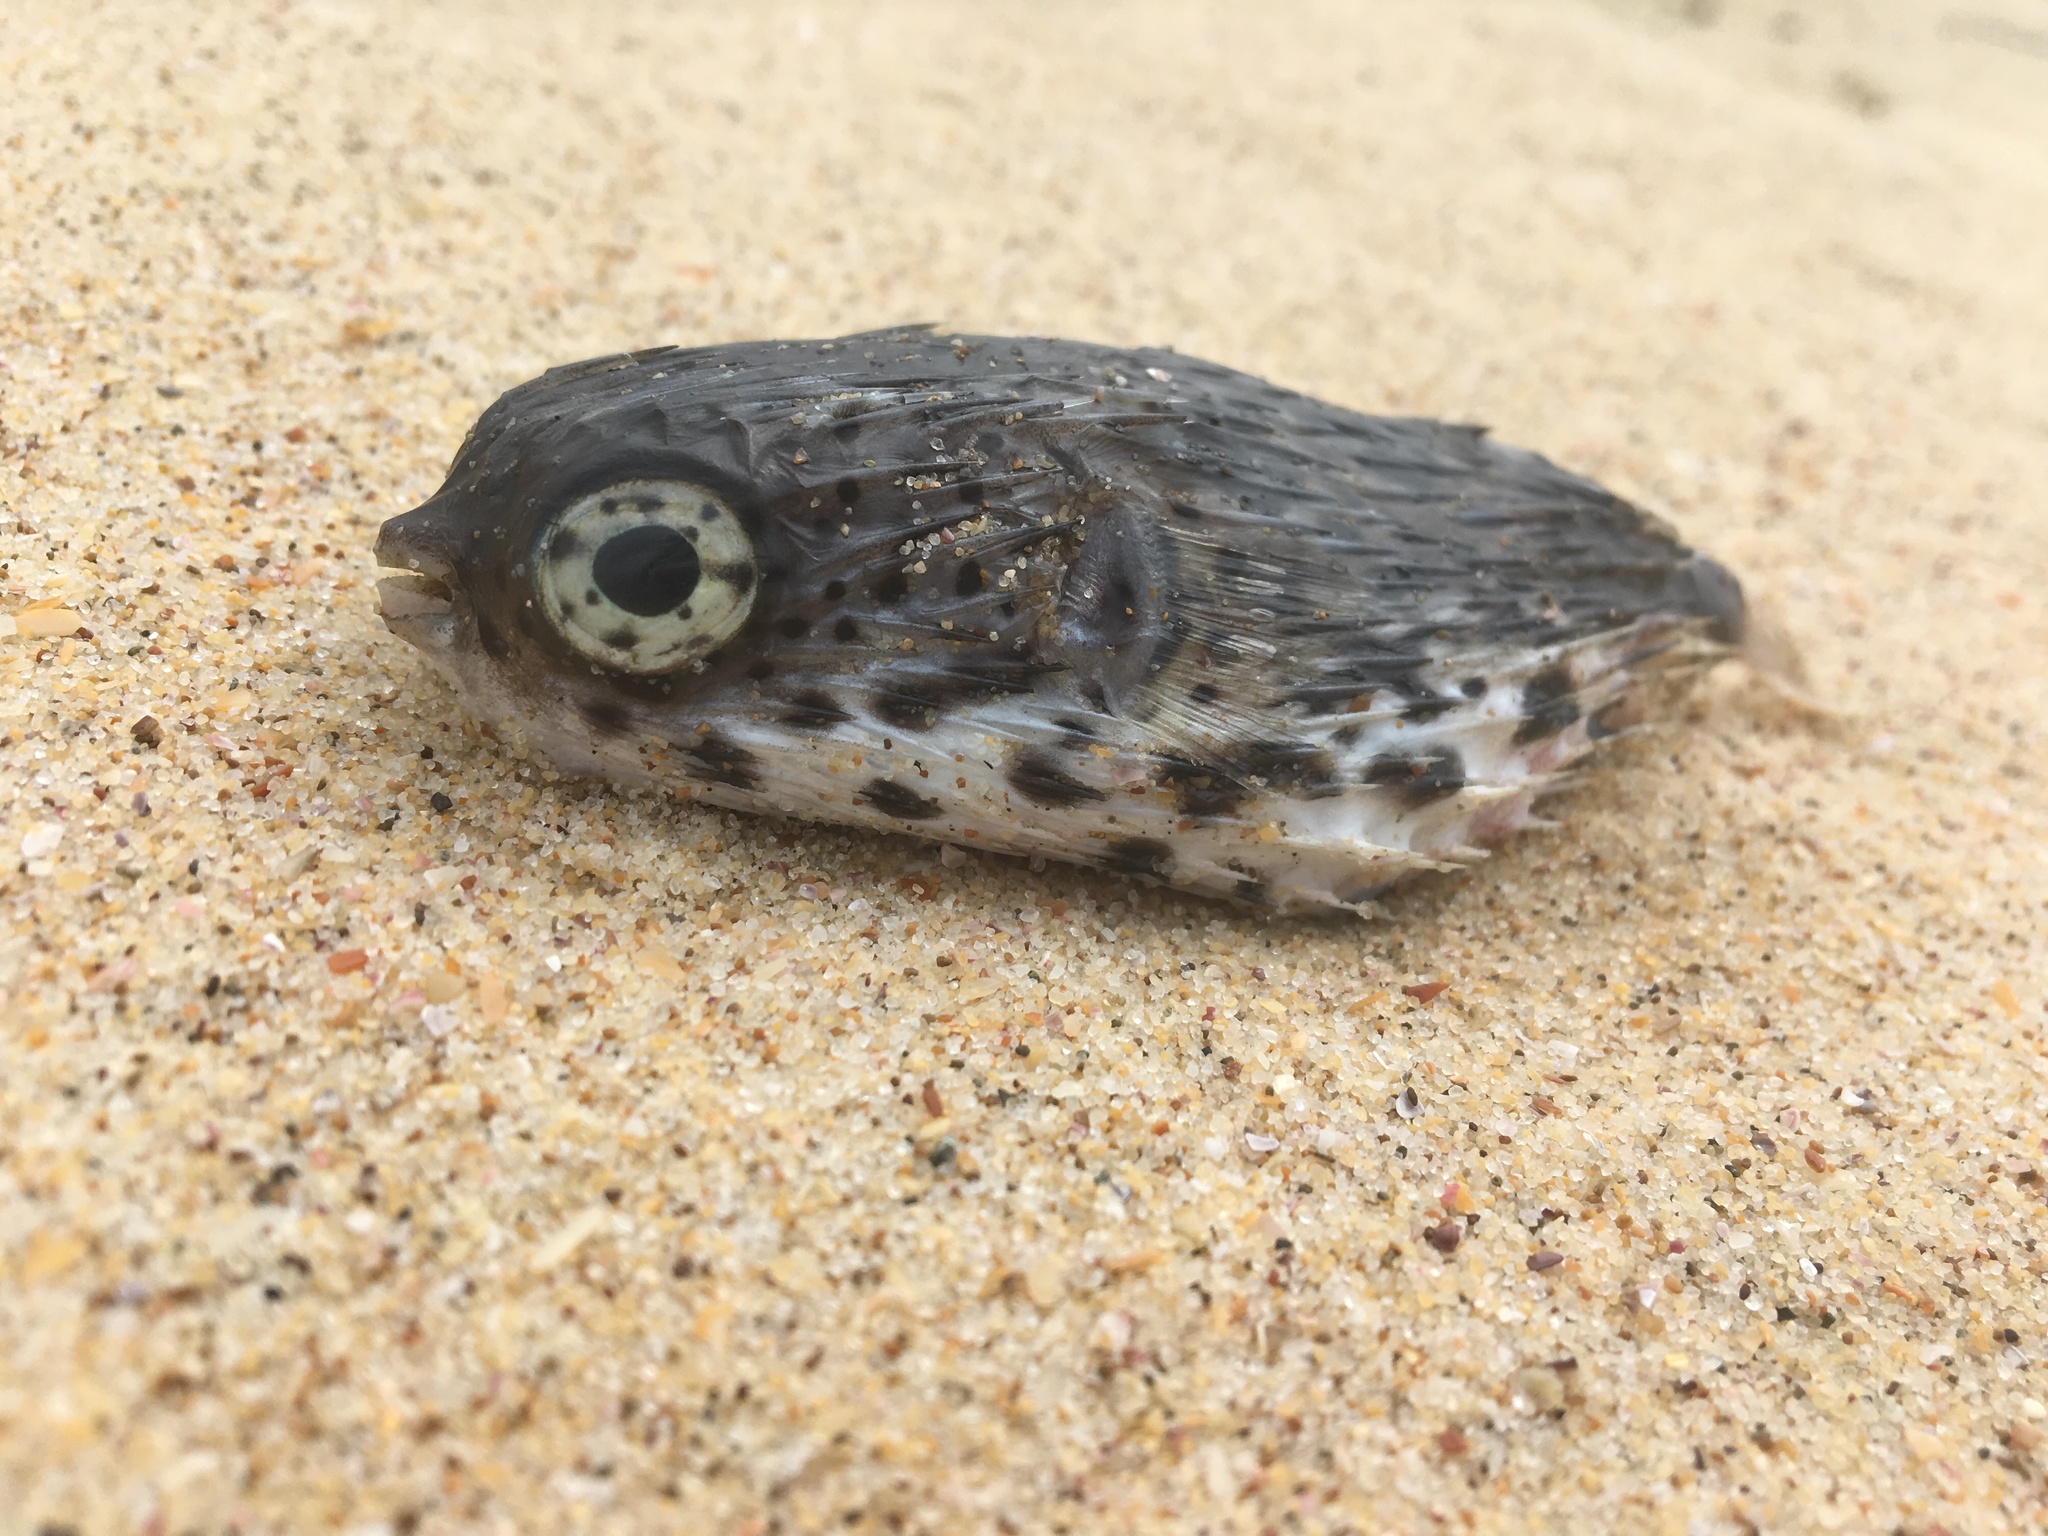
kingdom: Animalia
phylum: Chordata
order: Tetraodontiformes
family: Diodontidae
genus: Diodon
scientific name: Diodon holocanthus
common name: Balloonfish
